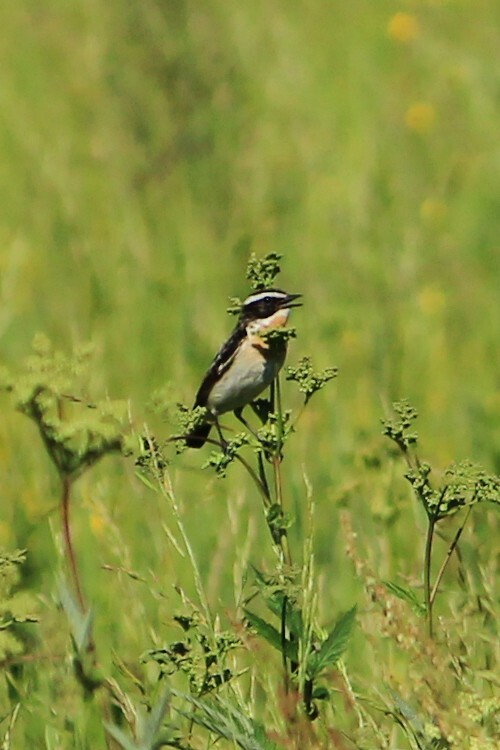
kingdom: Animalia
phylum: Chordata
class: Aves
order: Passeriformes
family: Muscicapidae
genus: Saxicola
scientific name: Saxicola rubetra
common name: Whinchat
